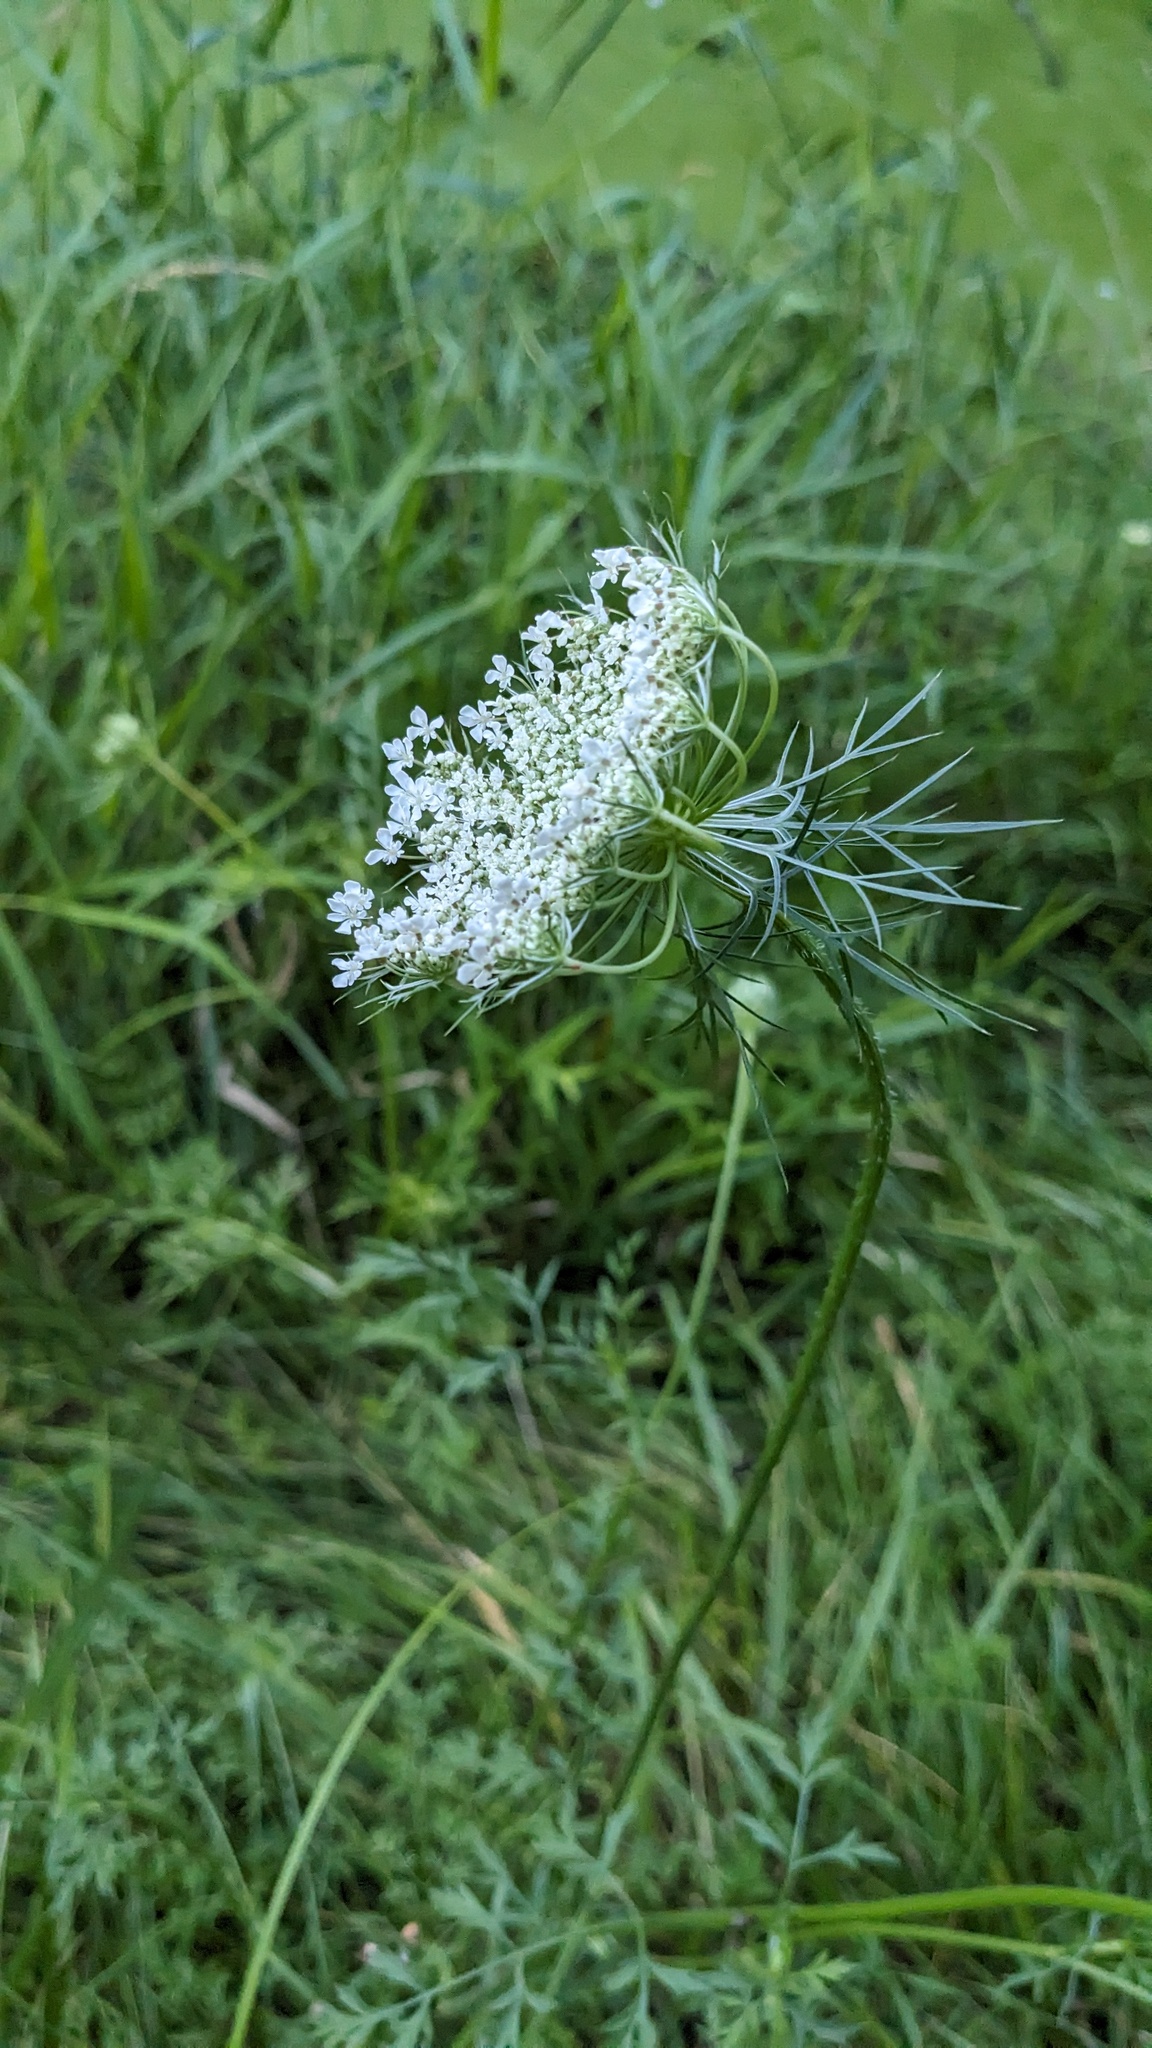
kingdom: Plantae
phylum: Tracheophyta
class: Magnoliopsida
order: Apiales
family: Apiaceae
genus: Daucus
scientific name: Daucus carota
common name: Wild carrot
